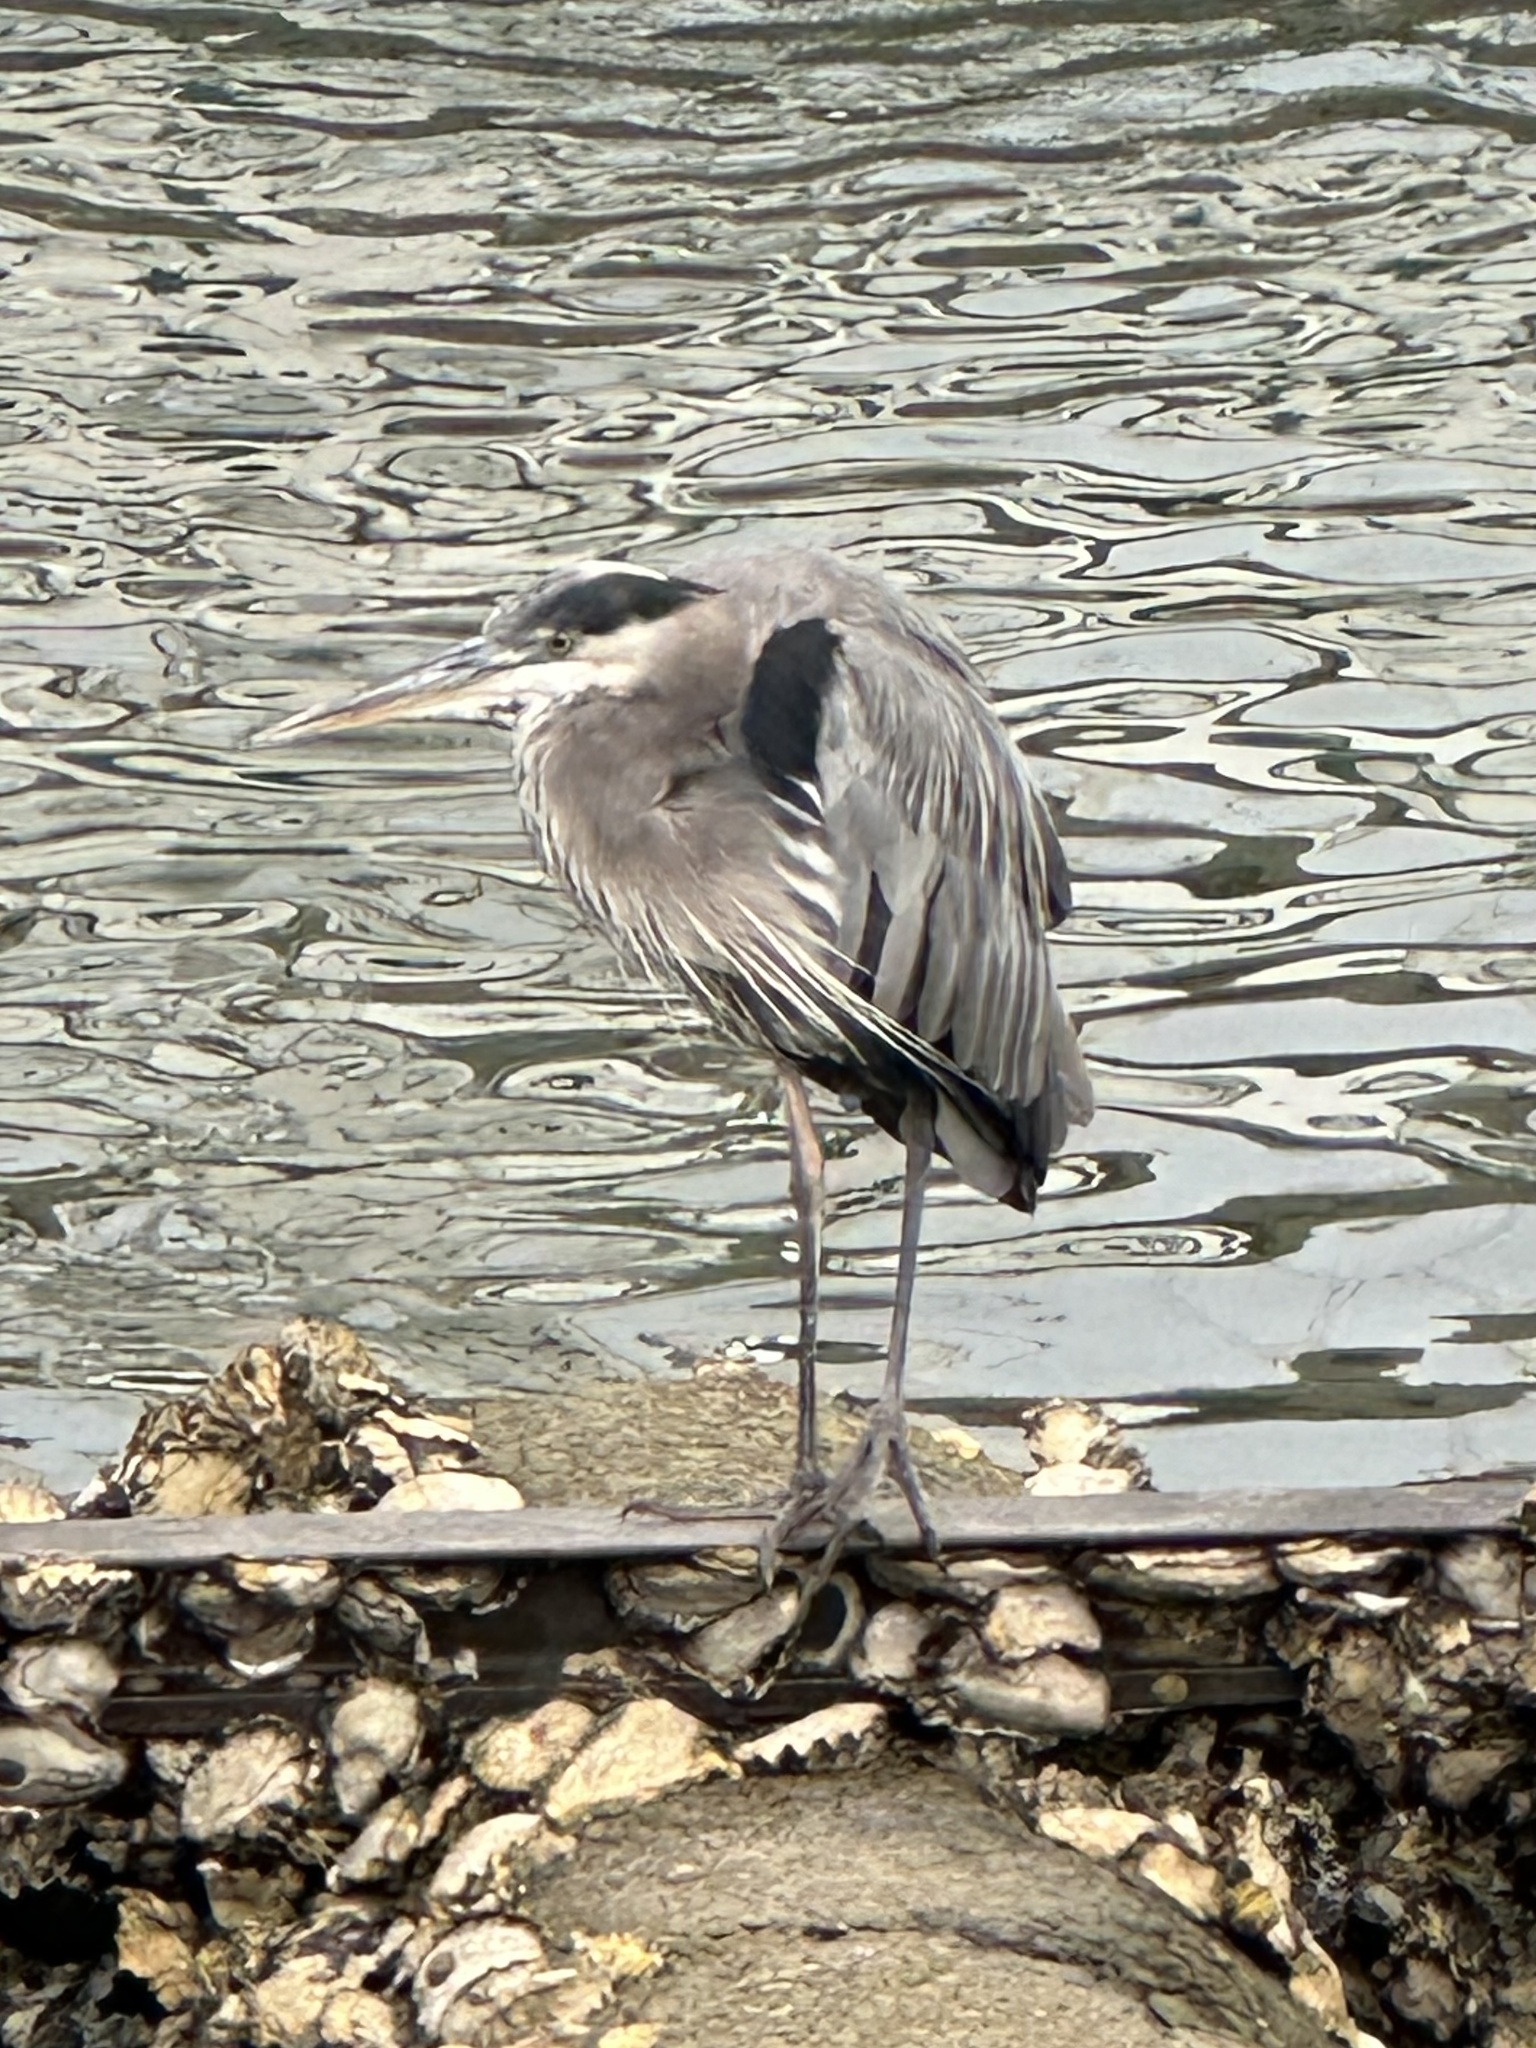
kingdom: Animalia
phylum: Chordata
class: Aves
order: Pelecaniformes
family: Ardeidae
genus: Ardea
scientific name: Ardea herodias
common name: Great blue heron
